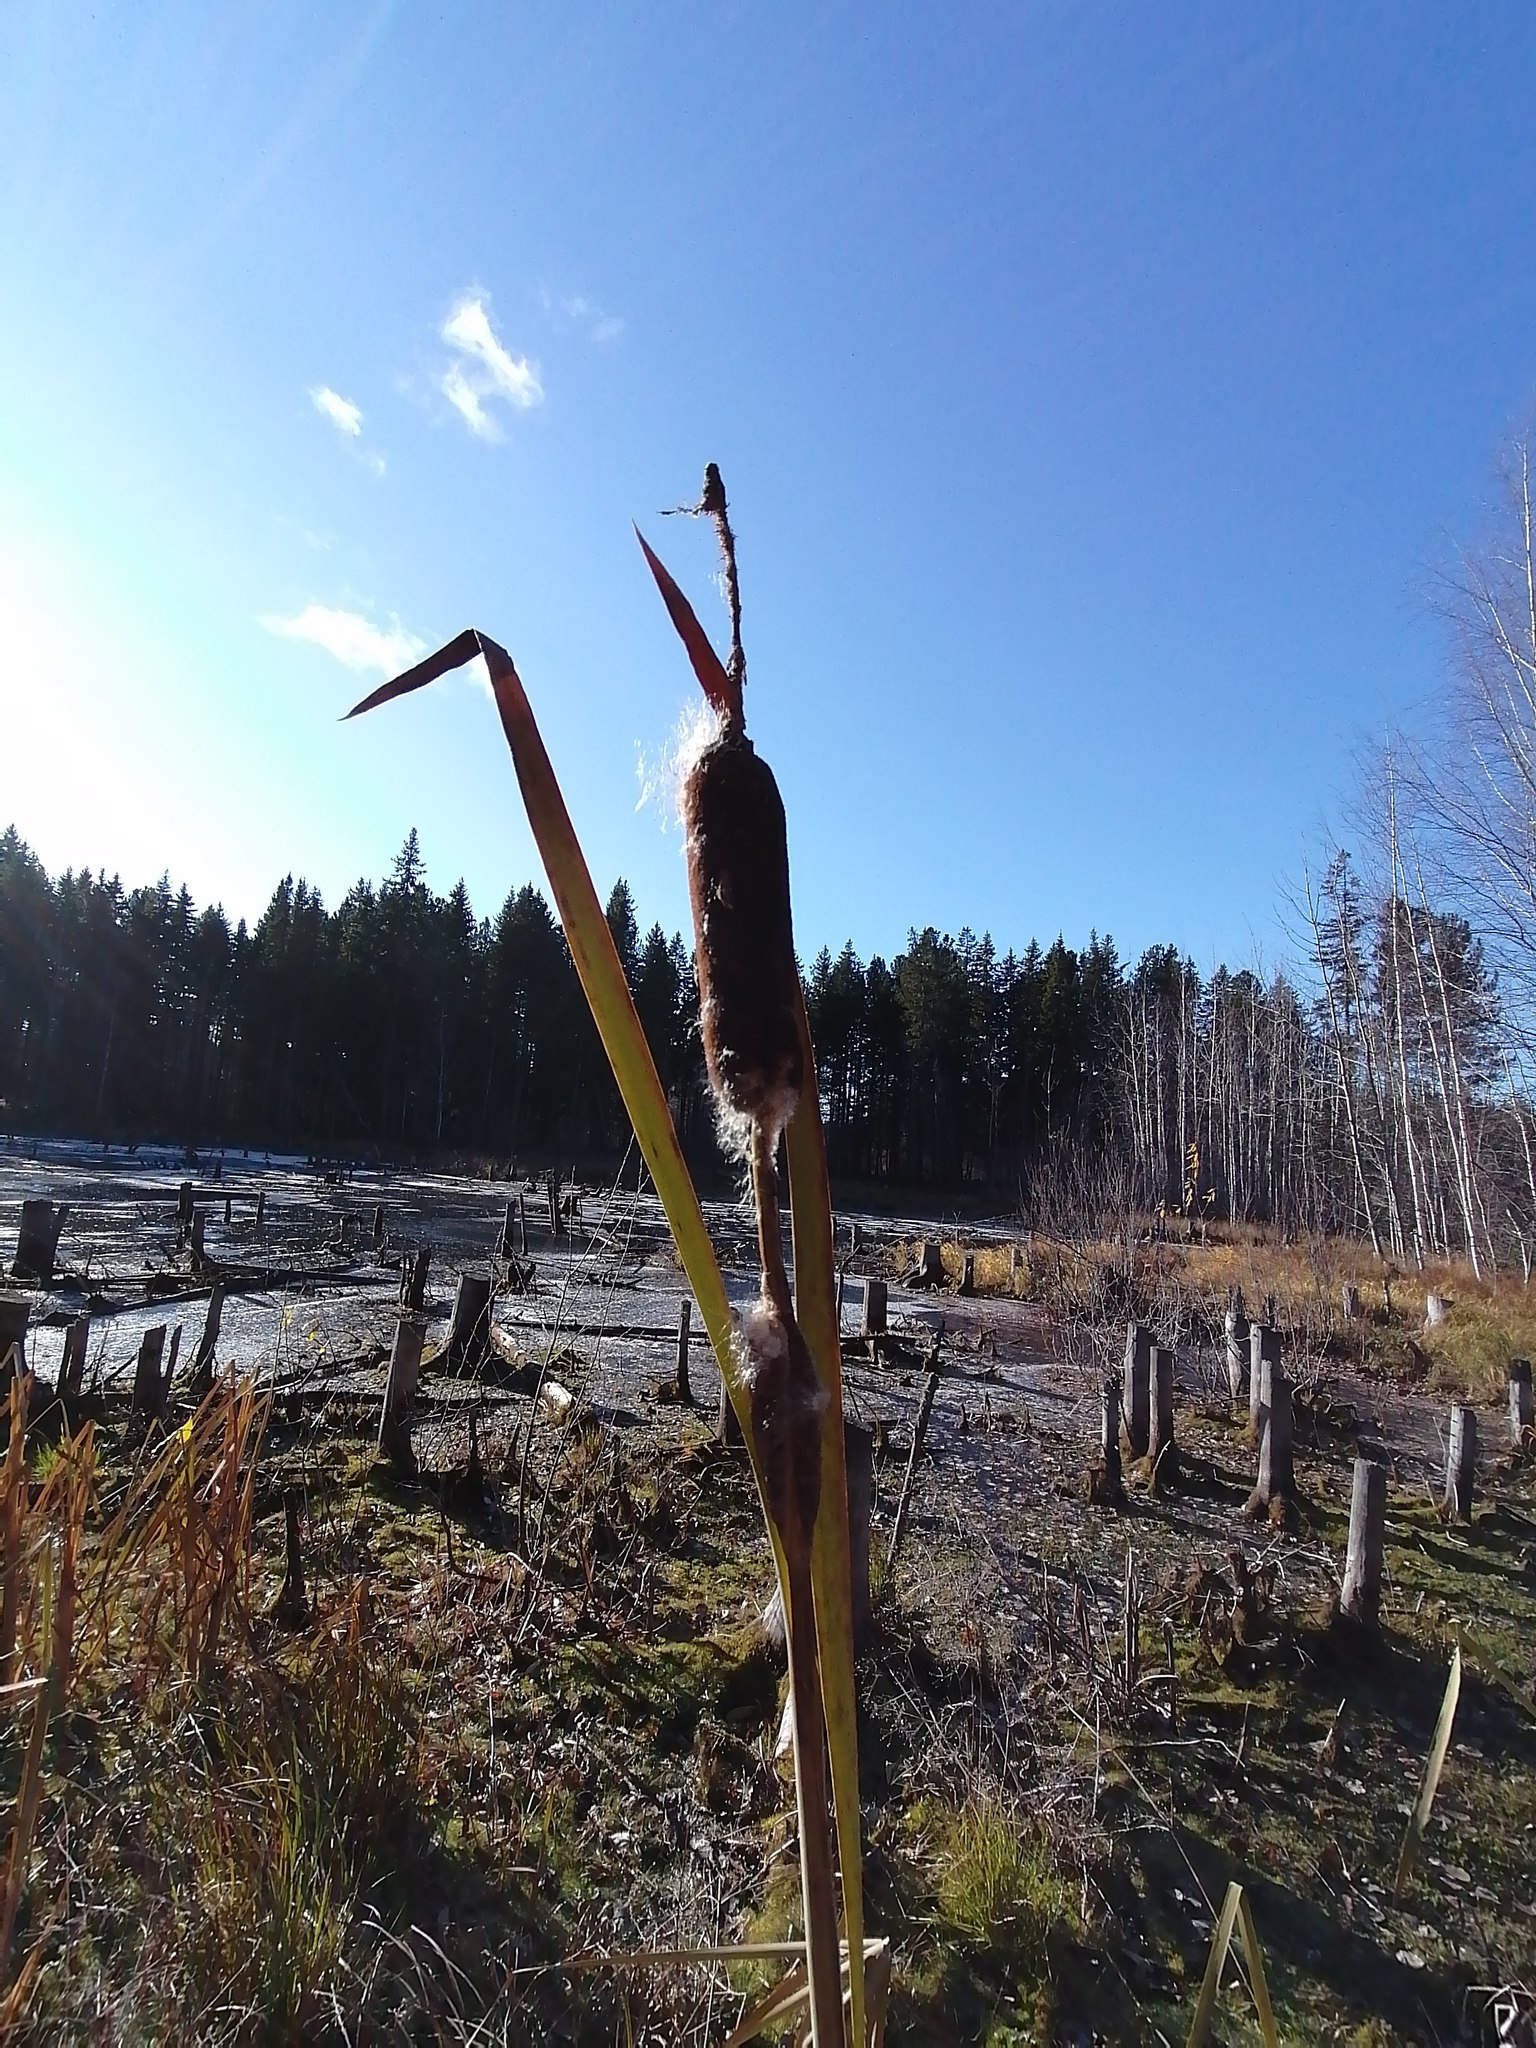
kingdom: Plantae
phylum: Tracheophyta
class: Liliopsida
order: Poales
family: Typhaceae
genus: Typha
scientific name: Typha latifolia
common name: Broadleaf cattail
